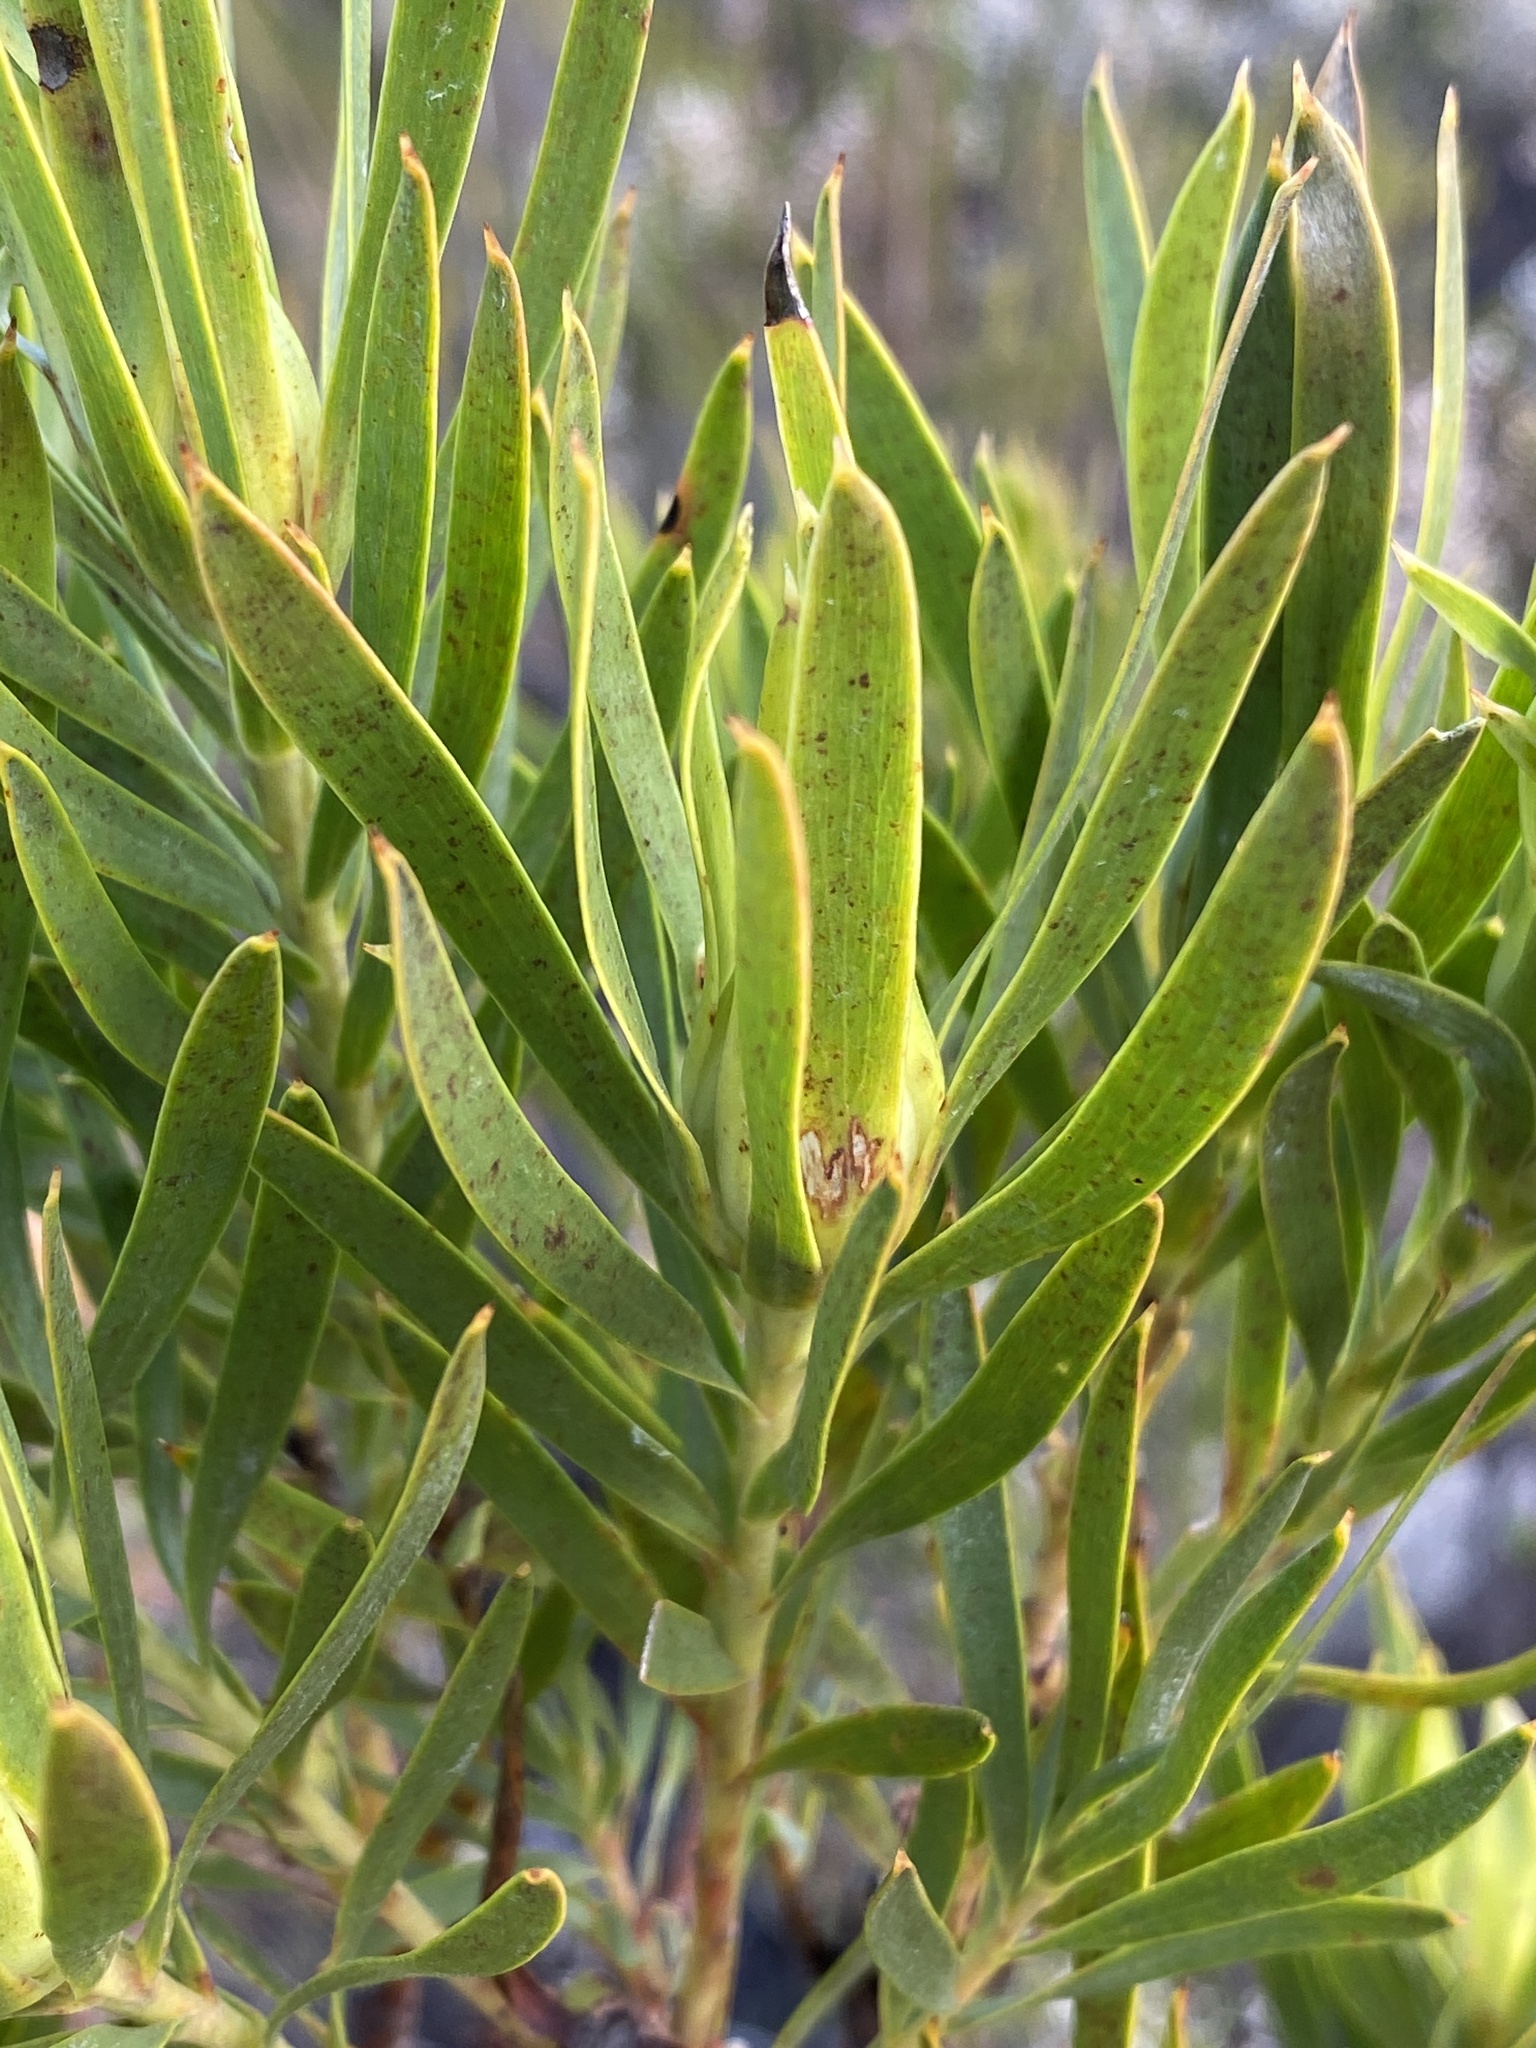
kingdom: Plantae
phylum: Tracheophyta
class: Magnoliopsida
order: Proteales
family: Proteaceae
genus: Leucadendron
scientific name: Leucadendron xanthoconus
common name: Sickle-leaf conebush
